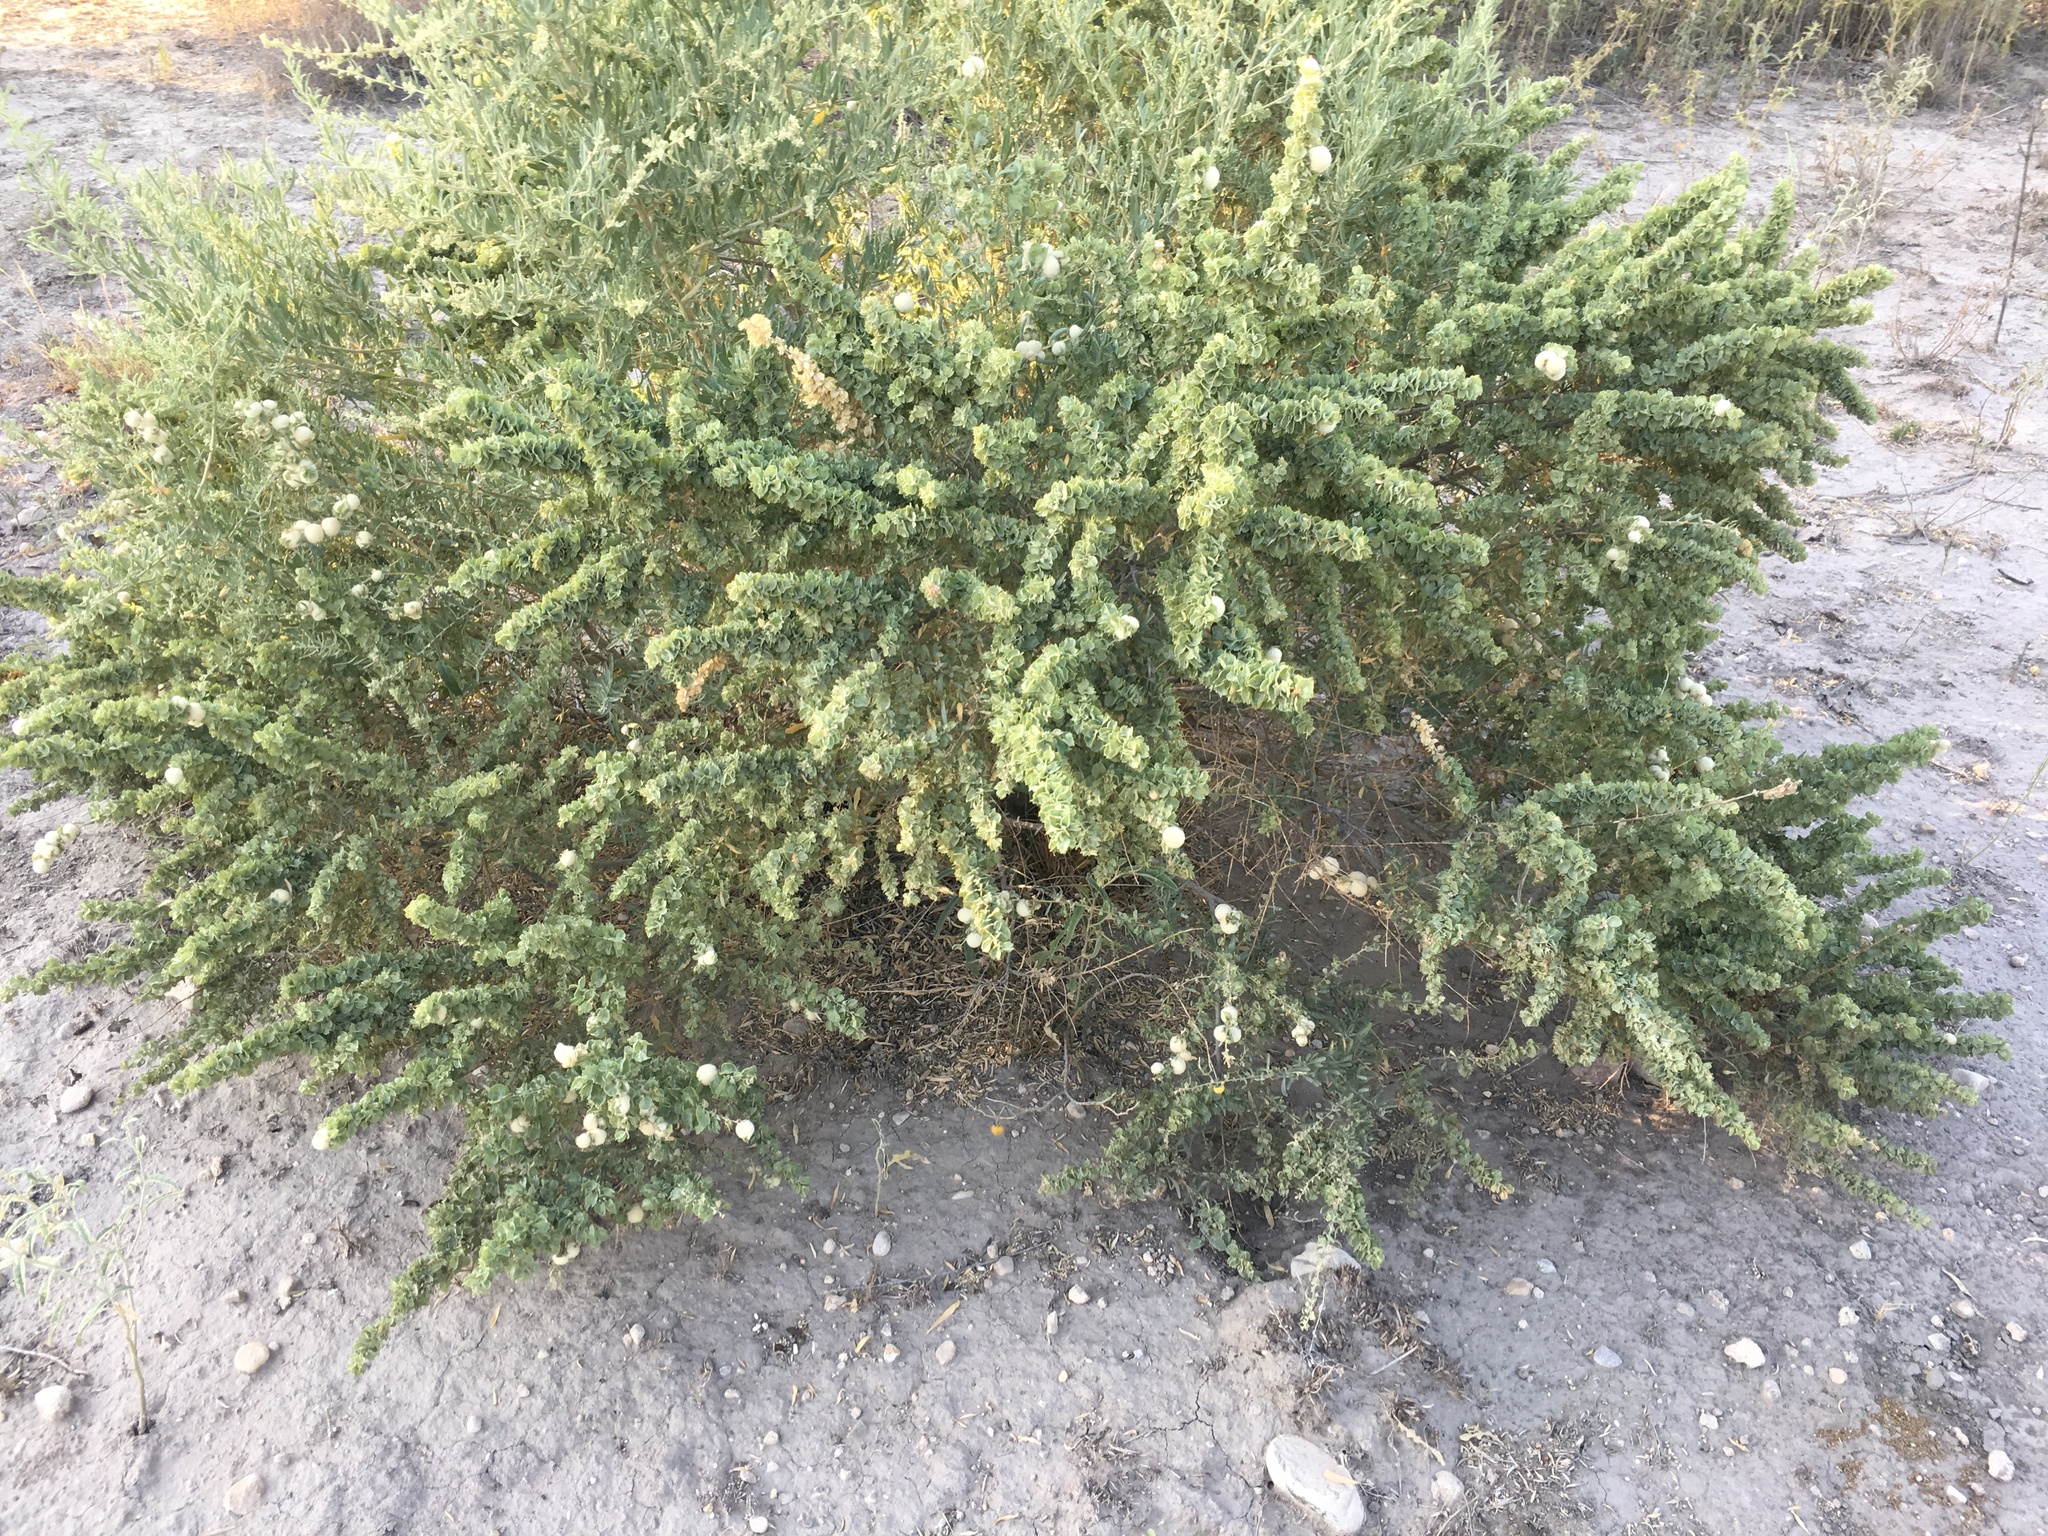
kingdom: Plantae
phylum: Tracheophyta
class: Magnoliopsida
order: Caryophyllales
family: Amaranthaceae
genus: Atriplex
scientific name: Atriplex canescens
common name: Four-wing saltbush
